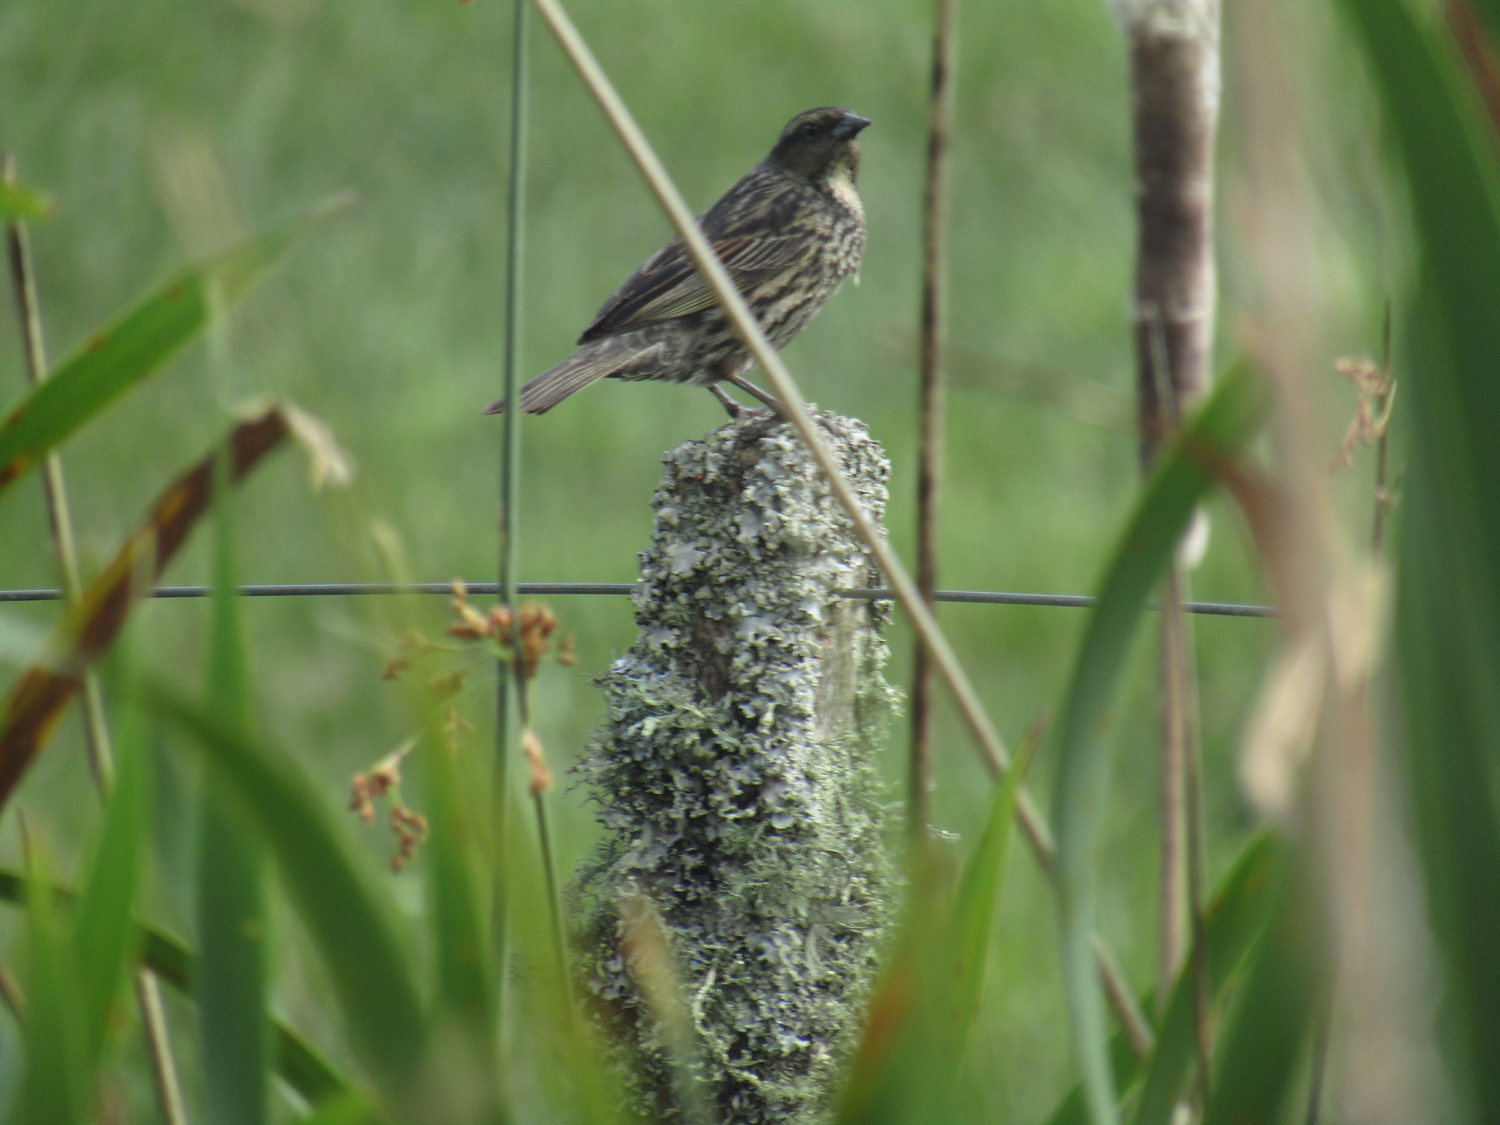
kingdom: Animalia
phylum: Chordata
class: Aves
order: Passeriformes
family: Icteridae
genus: Agelasticus
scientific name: Agelasticus thilius
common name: Yellow-winged blackbird
